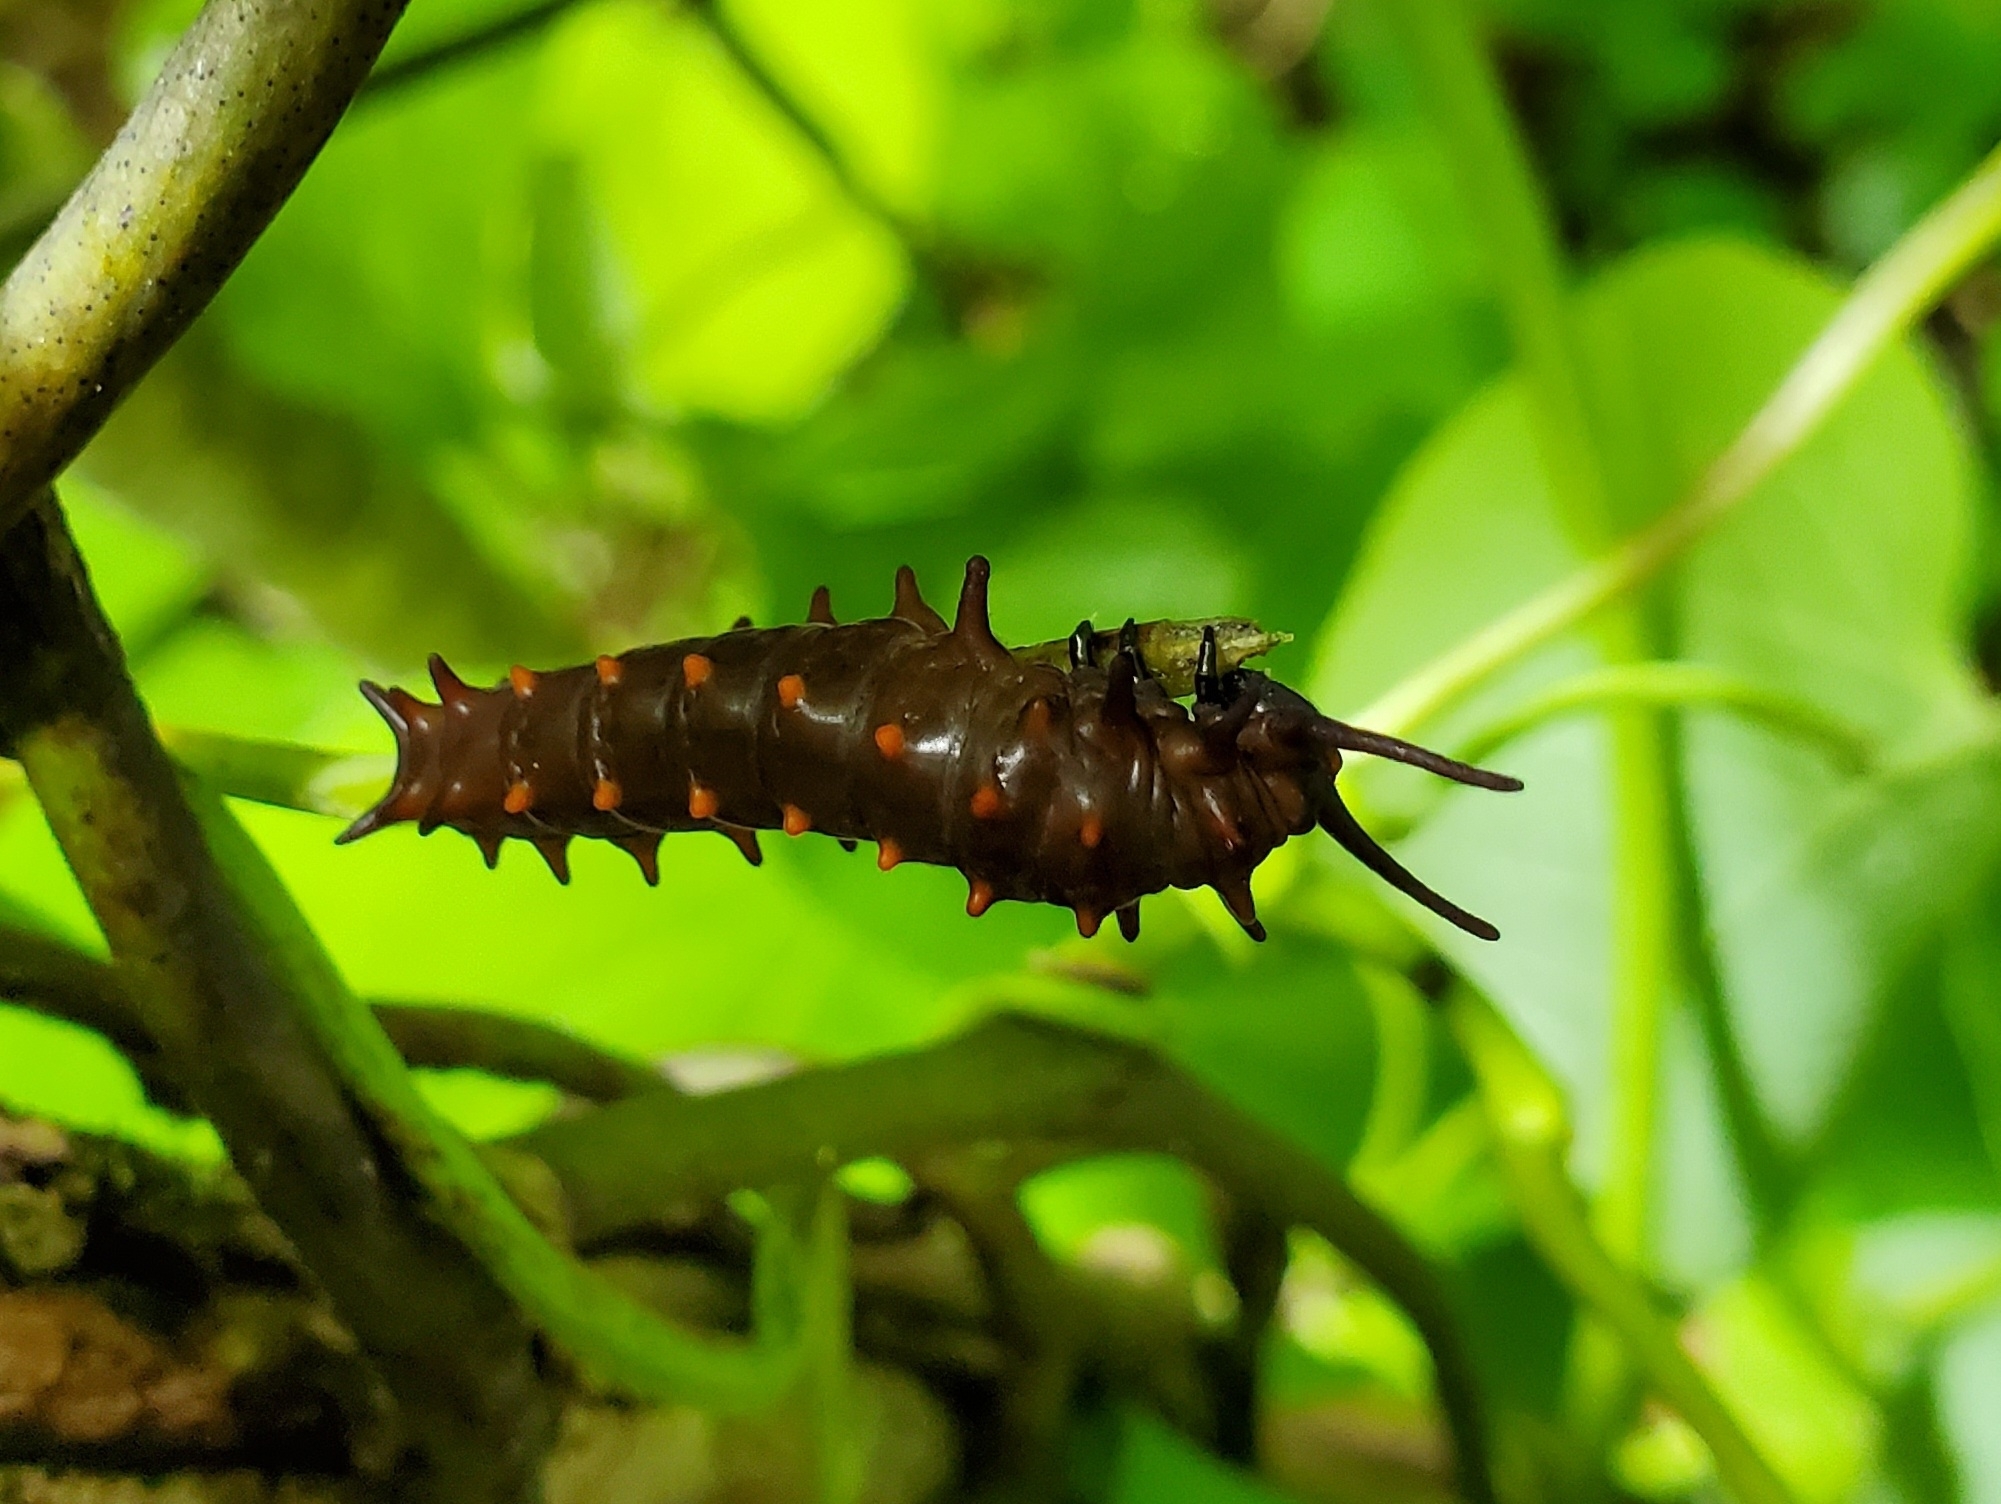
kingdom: Animalia
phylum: Arthropoda
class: Insecta
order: Lepidoptera
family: Papilionidae
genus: Battus
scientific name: Battus philenor
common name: Pipevine swallowtail
